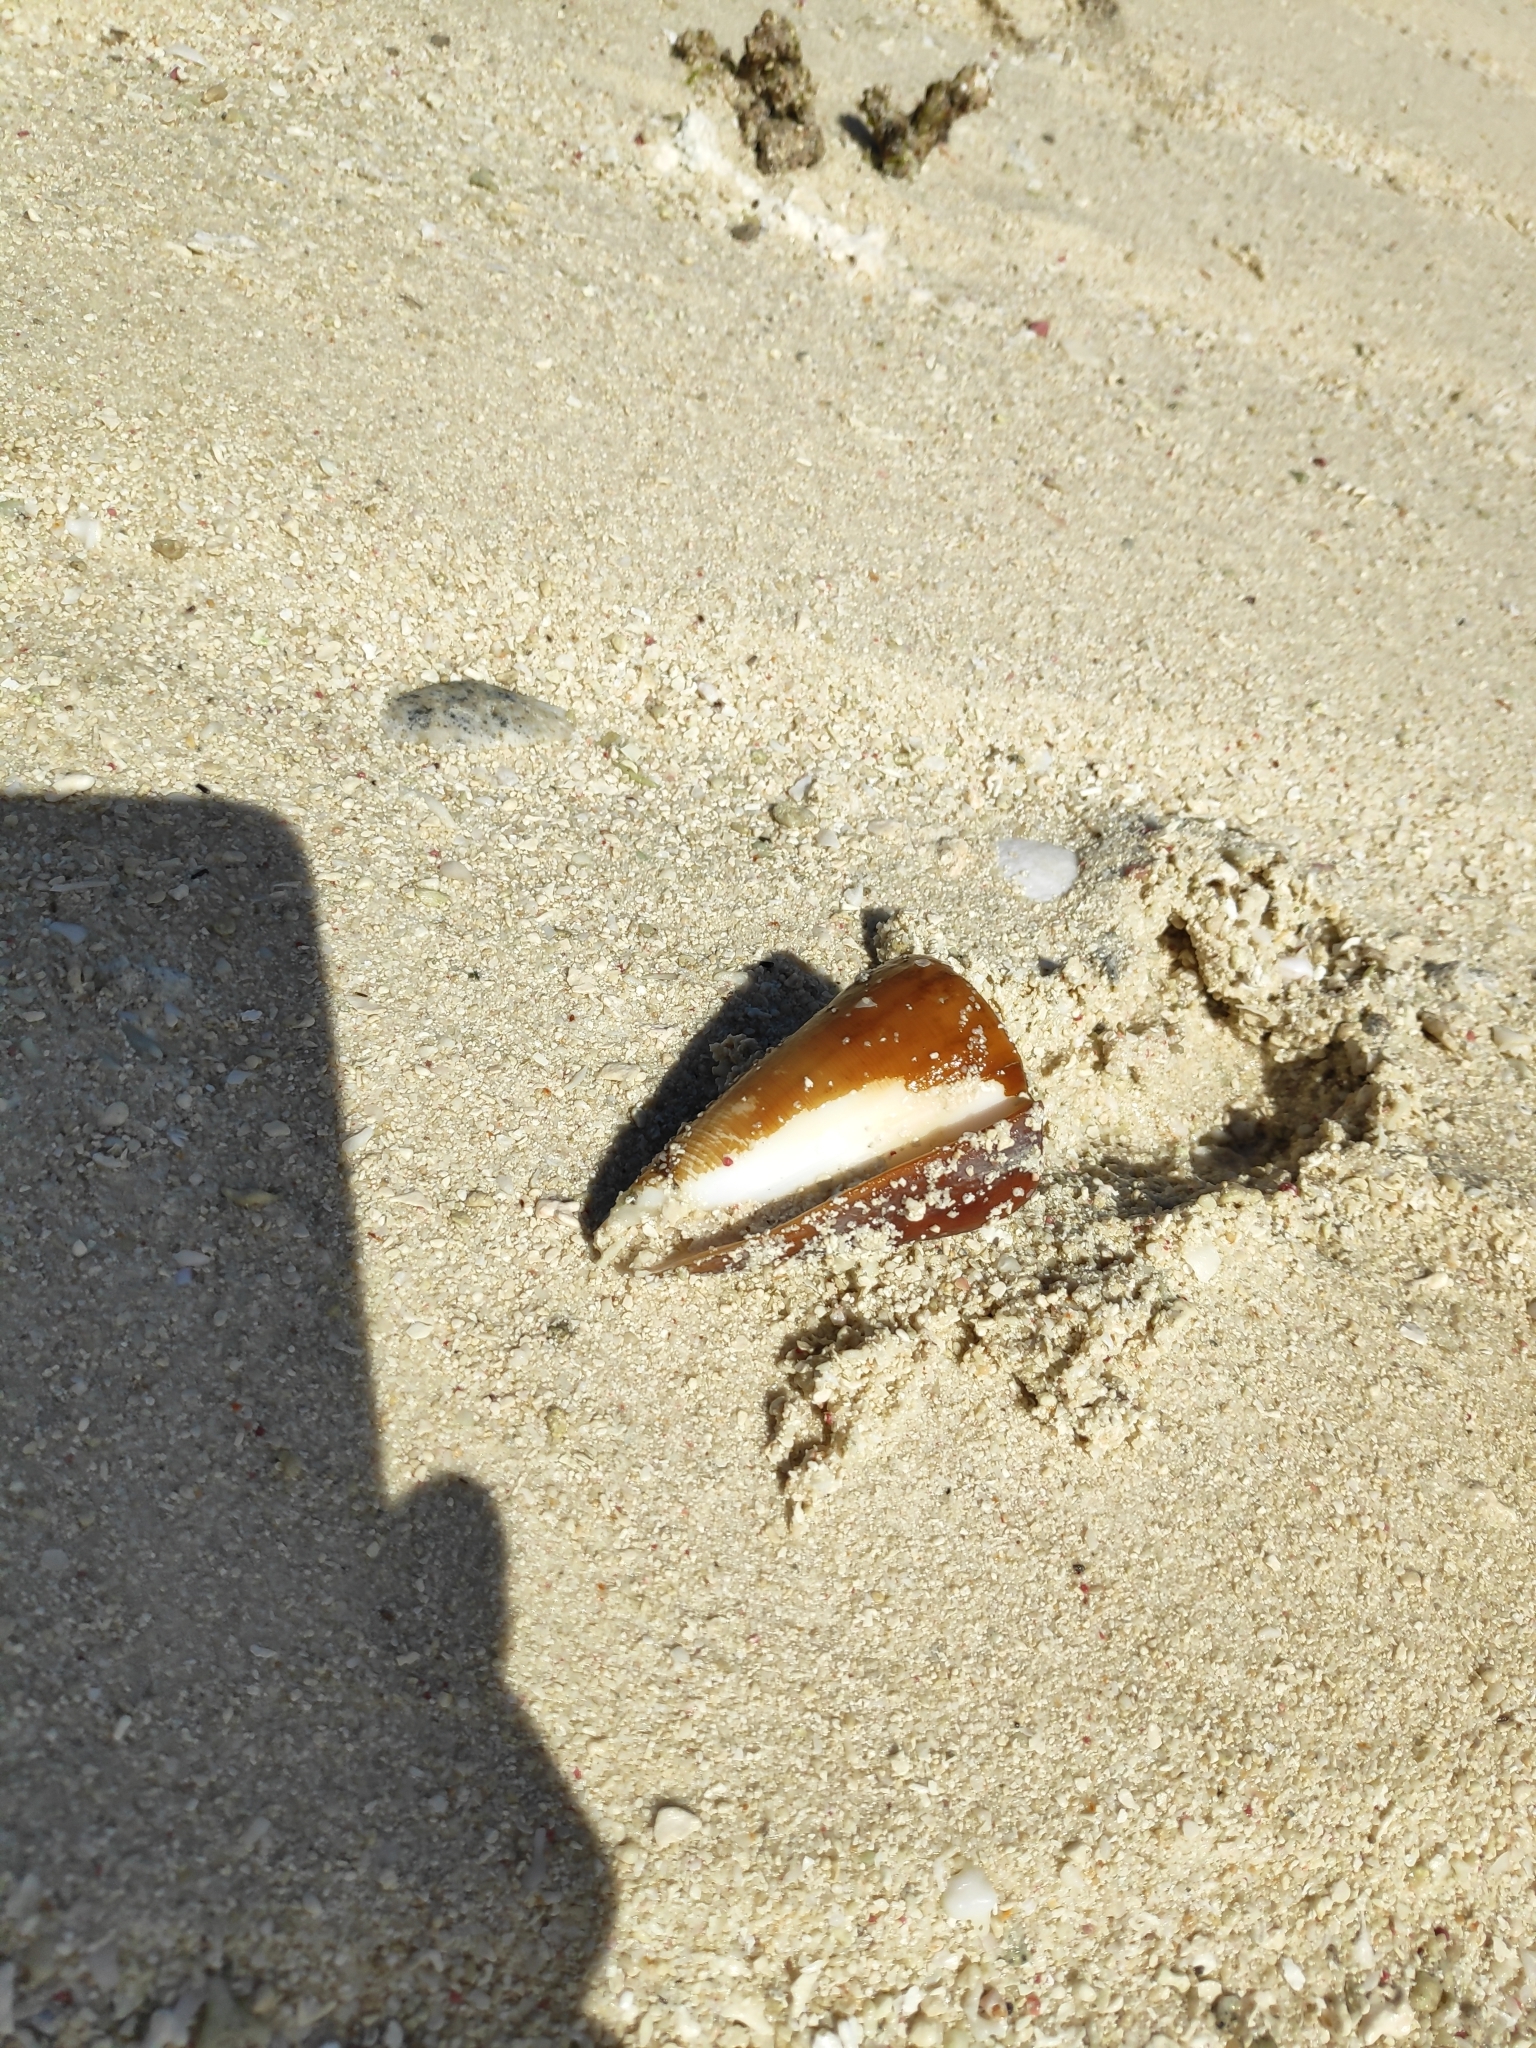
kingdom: Animalia
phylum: Mollusca
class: Gastropoda
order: Neogastropoda
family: Conidae
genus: Conus
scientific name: Conus quercinus
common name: Oak cone
